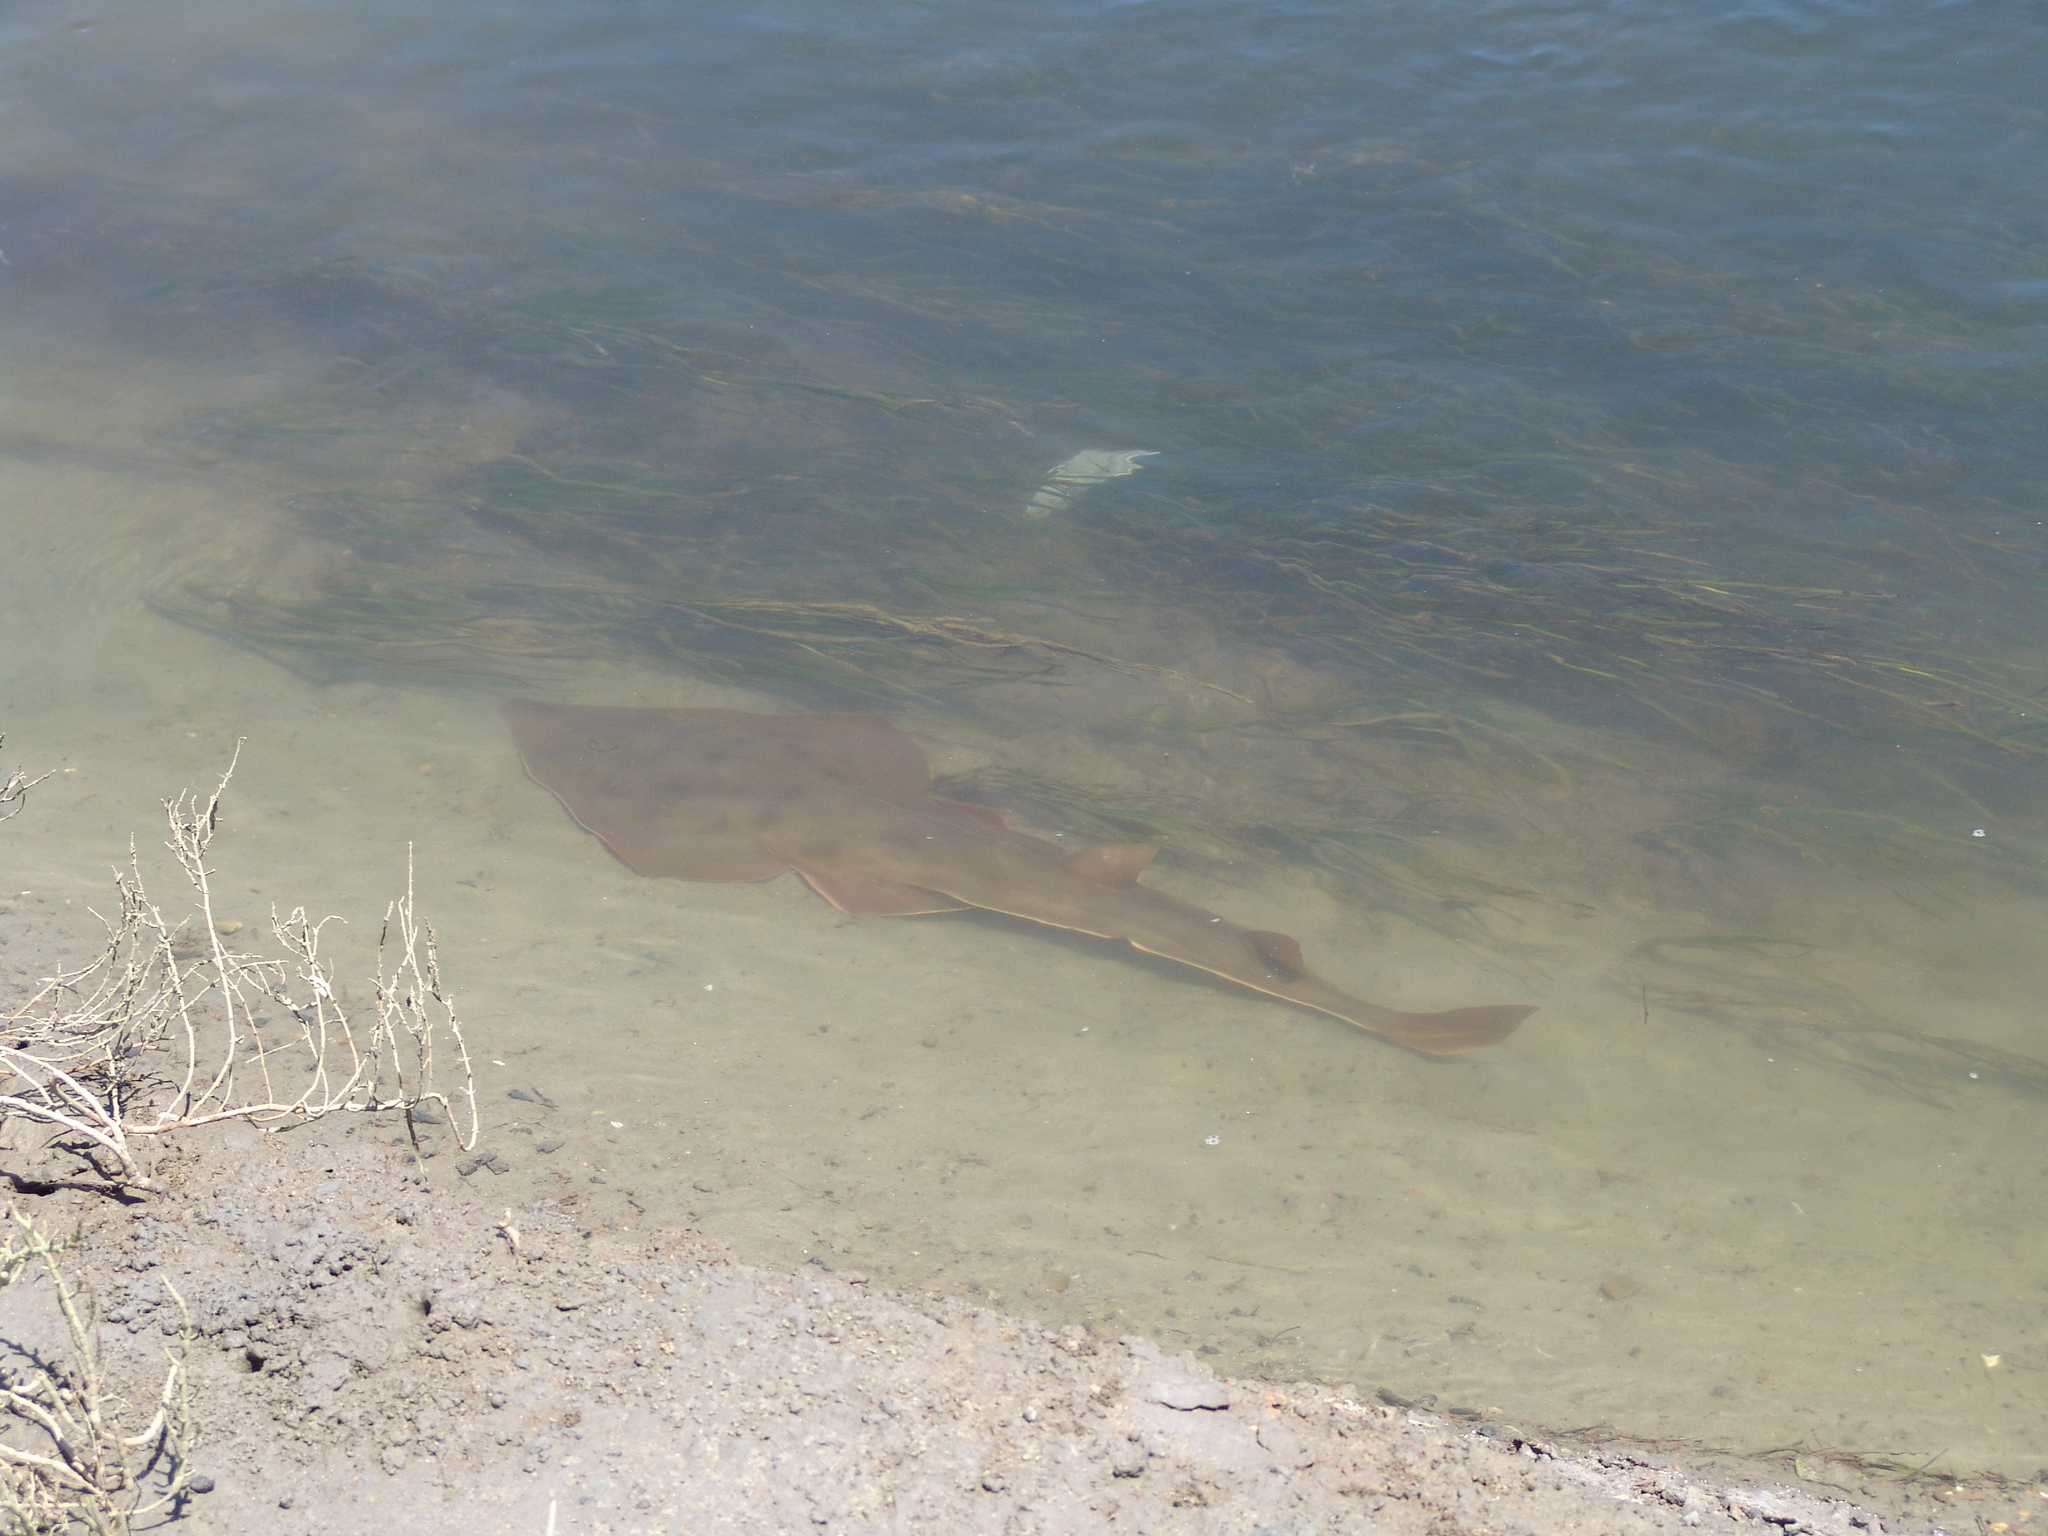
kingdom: Animalia
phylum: Chordata
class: Elasmobranchii
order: Rhinopristiformes
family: Rhinobatidae
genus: Pseudobatos
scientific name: Pseudobatos productus
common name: Shovelnose guitarfish
